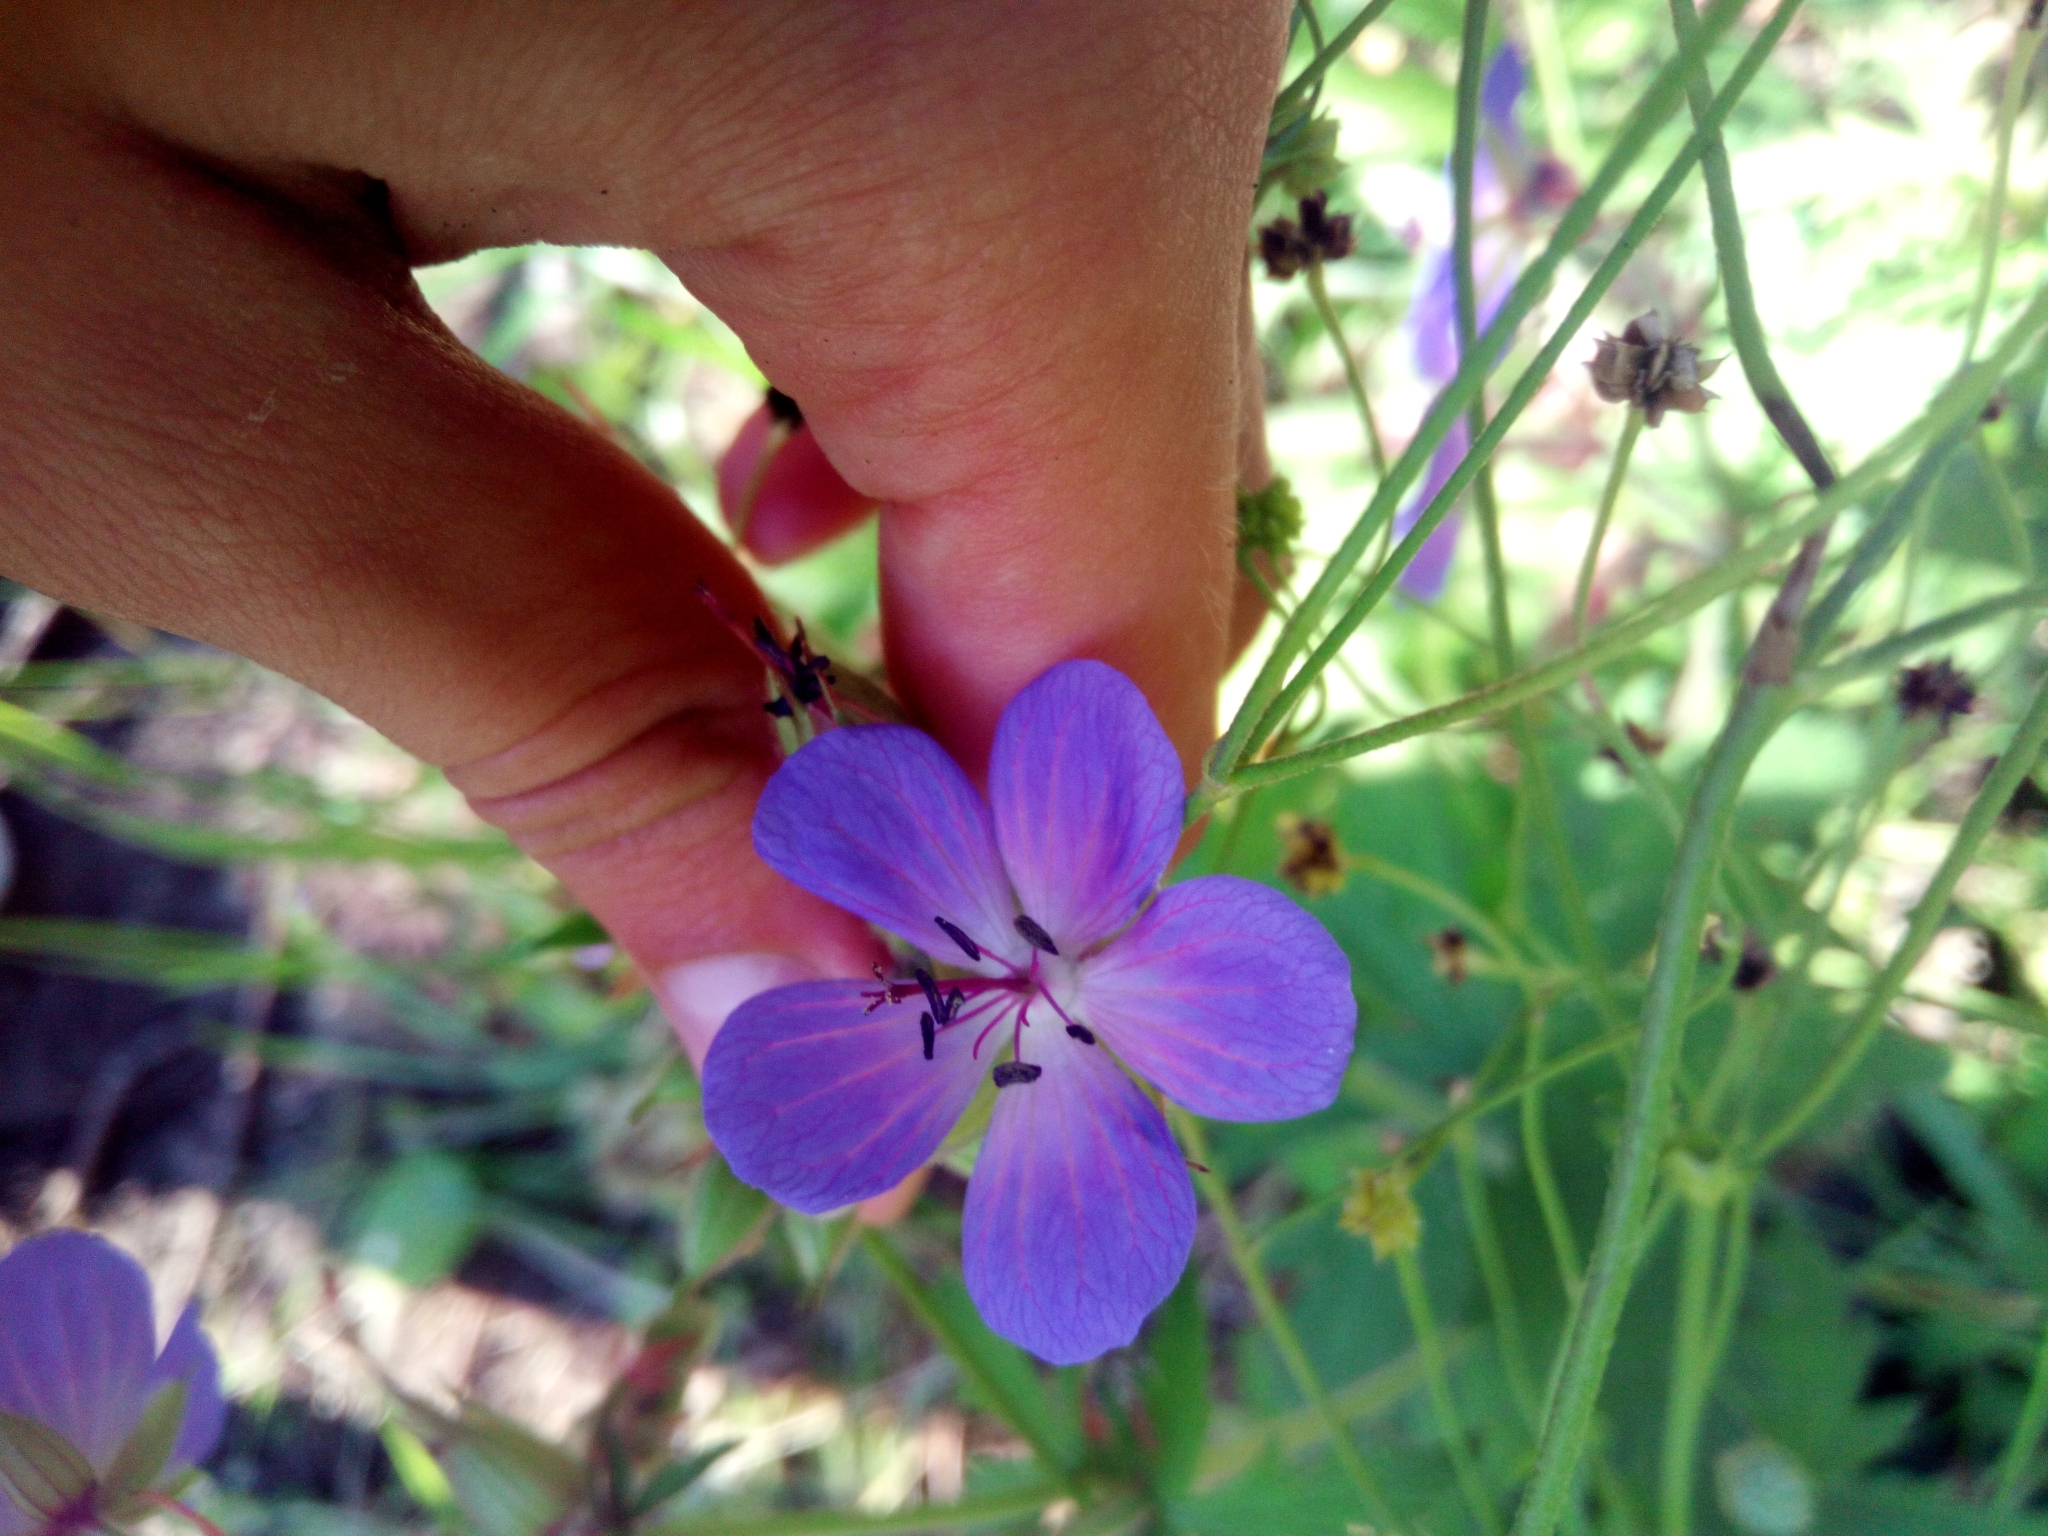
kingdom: Plantae
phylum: Tracheophyta
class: Magnoliopsida
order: Geraniales
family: Geraniaceae
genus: Geranium
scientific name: Geranium pratense
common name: Meadow crane's-bill
